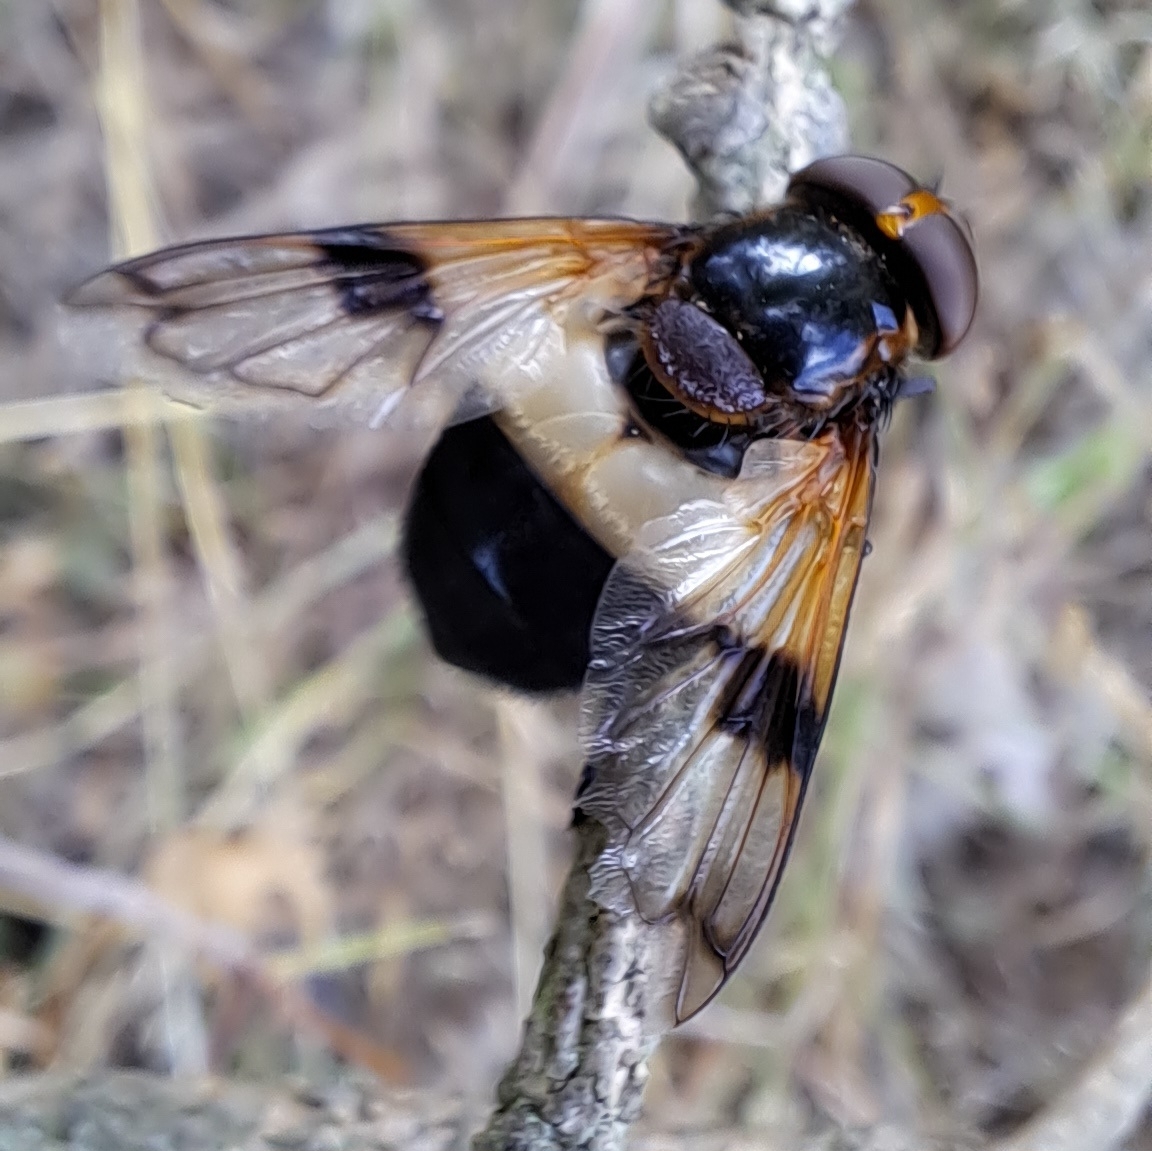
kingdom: Animalia
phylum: Arthropoda
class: Insecta
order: Diptera
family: Syrphidae
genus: Volucella
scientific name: Volucella pellucens
